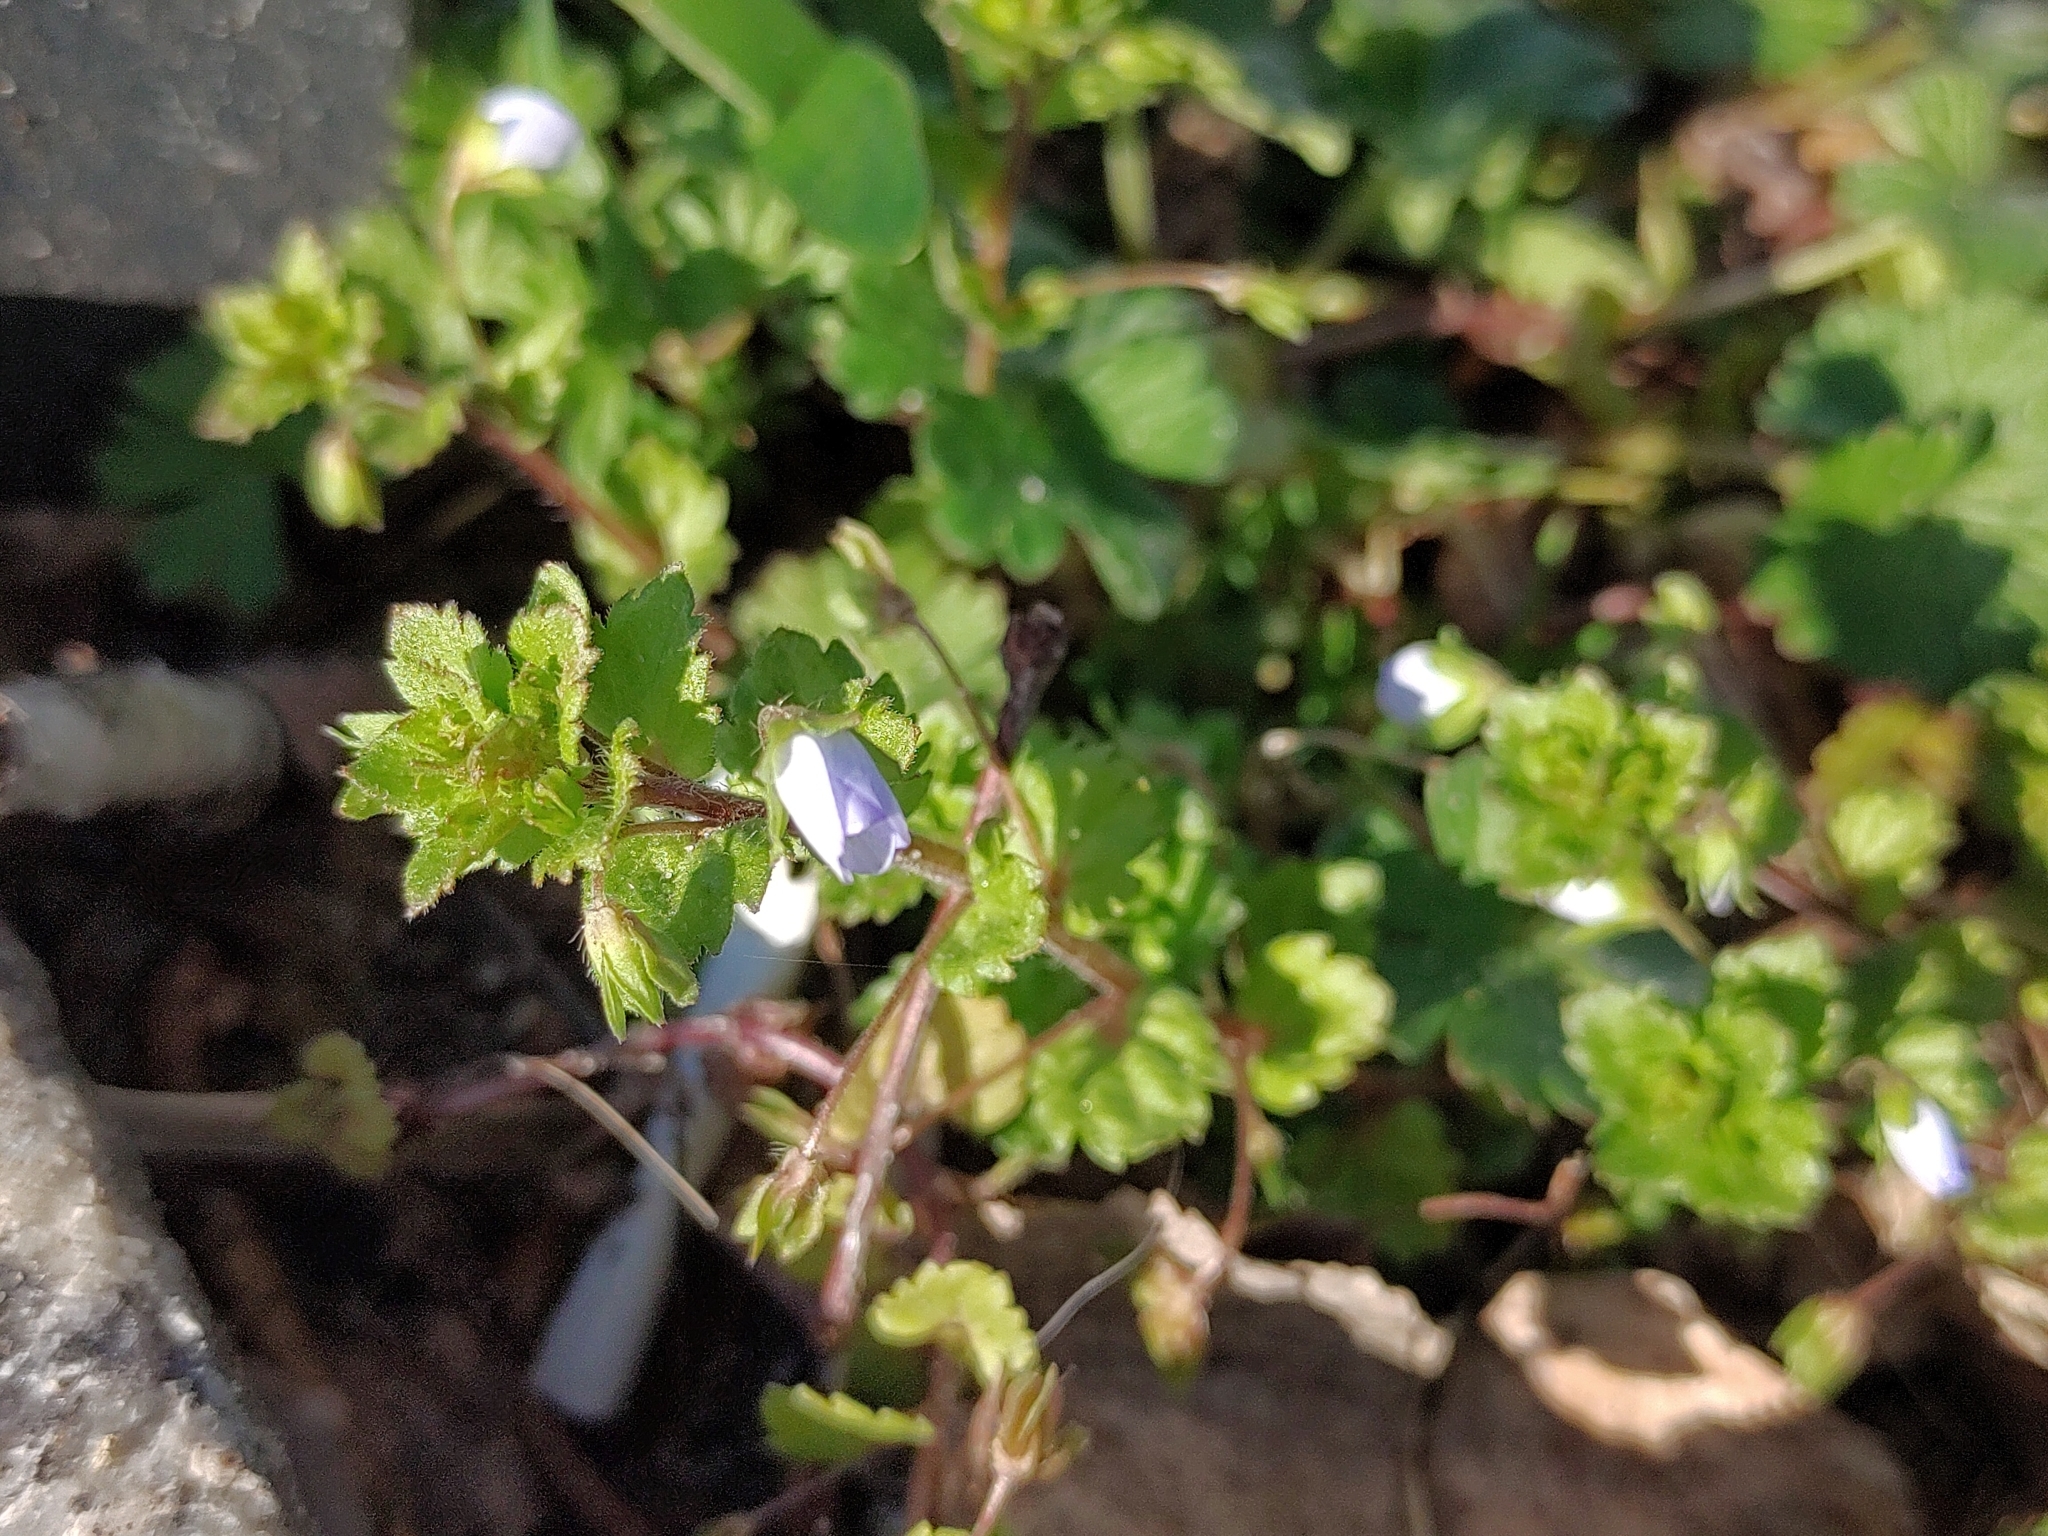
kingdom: Plantae
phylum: Tracheophyta
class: Magnoliopsida
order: Lamiales
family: Plantaginaceae
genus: Veronica
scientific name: Veronica persica
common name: Common field-speedwell
